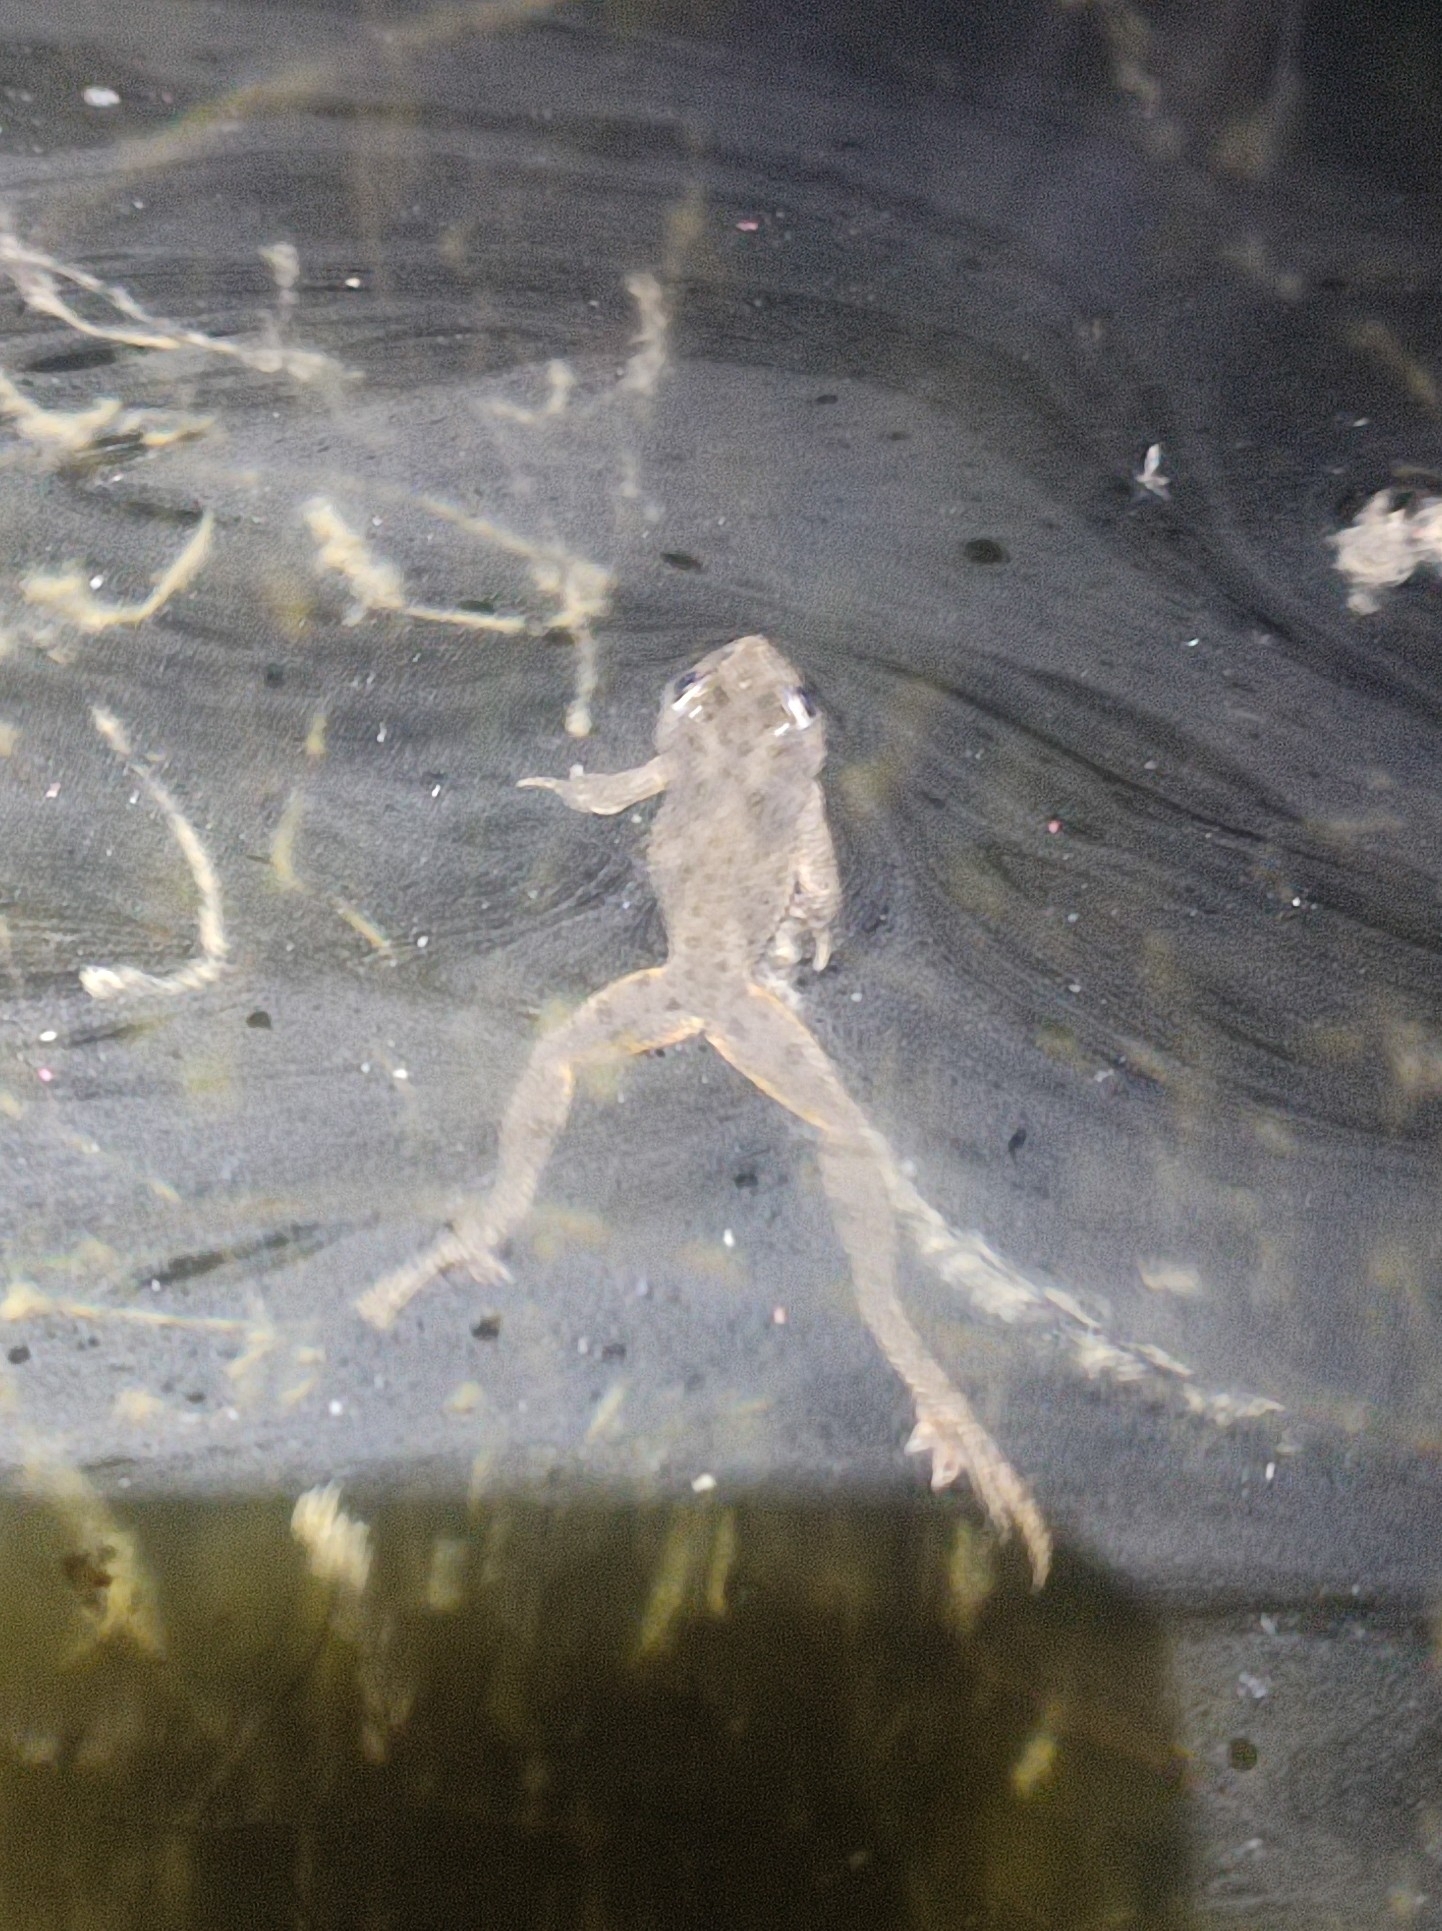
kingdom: Animalia
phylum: Chordata
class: Amphibia
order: Anura
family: Pelodytidae
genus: Pelodytes
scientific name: Pelodytes punctatus
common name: Parsley frog
